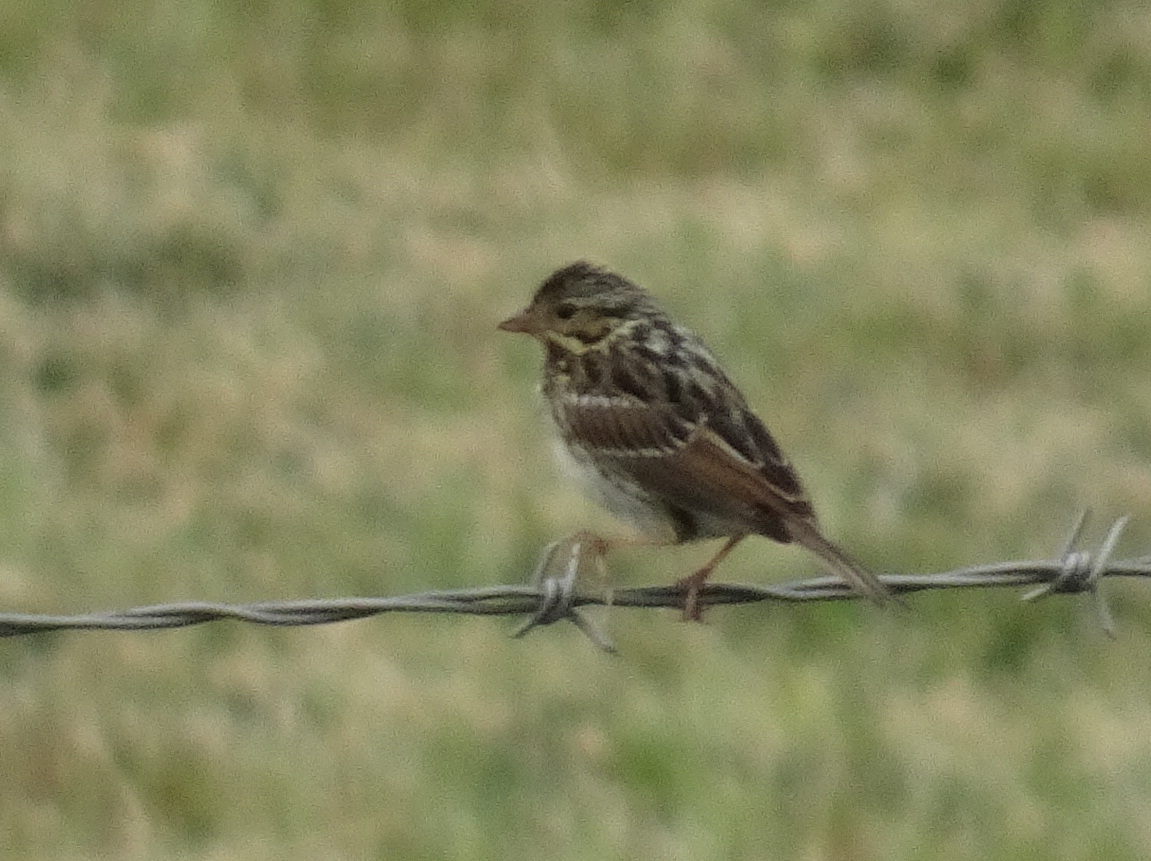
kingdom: Animalia
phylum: Chordata
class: Aves
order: Passeriformes
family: Passerellidae
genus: Passerculus
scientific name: Passerculus sandwichensis
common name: Savannah sparrow
